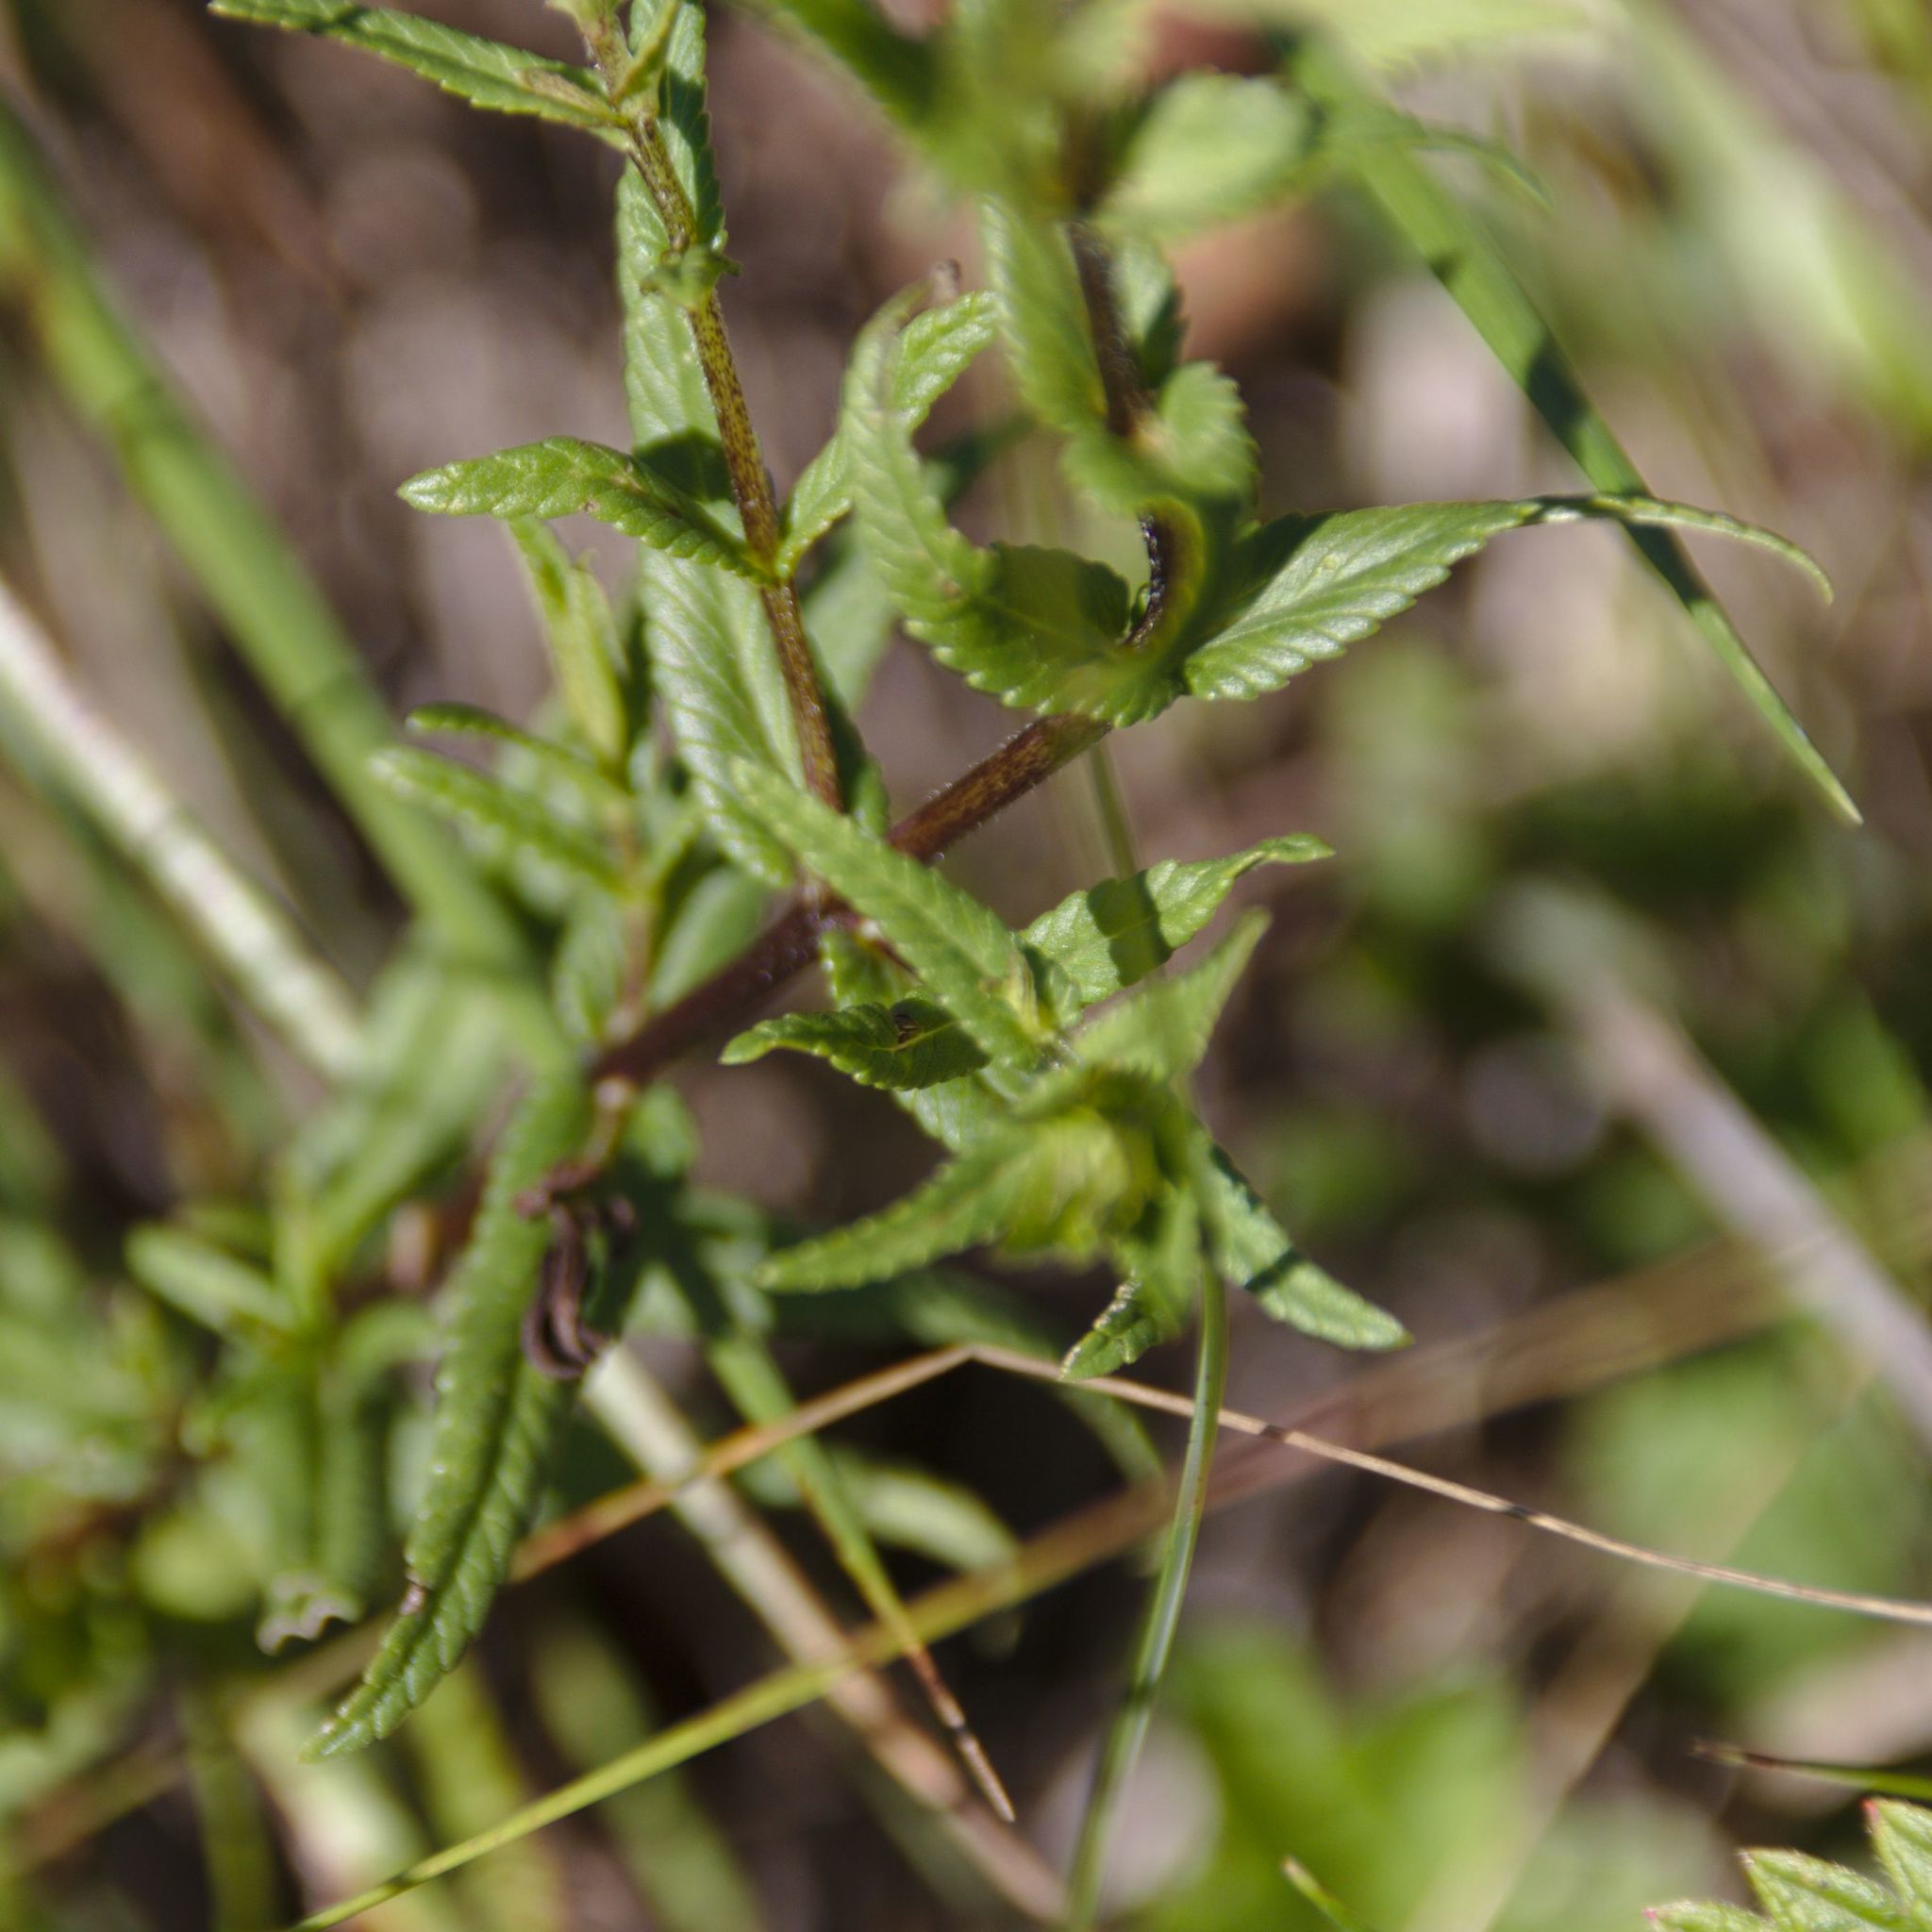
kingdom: Plantae
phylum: Tracheophyta
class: Magnoliopsida
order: Lamiales
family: Orobanchaceae
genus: Rhinanthus
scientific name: Rhinanthus minor
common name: Yellow-rattle
